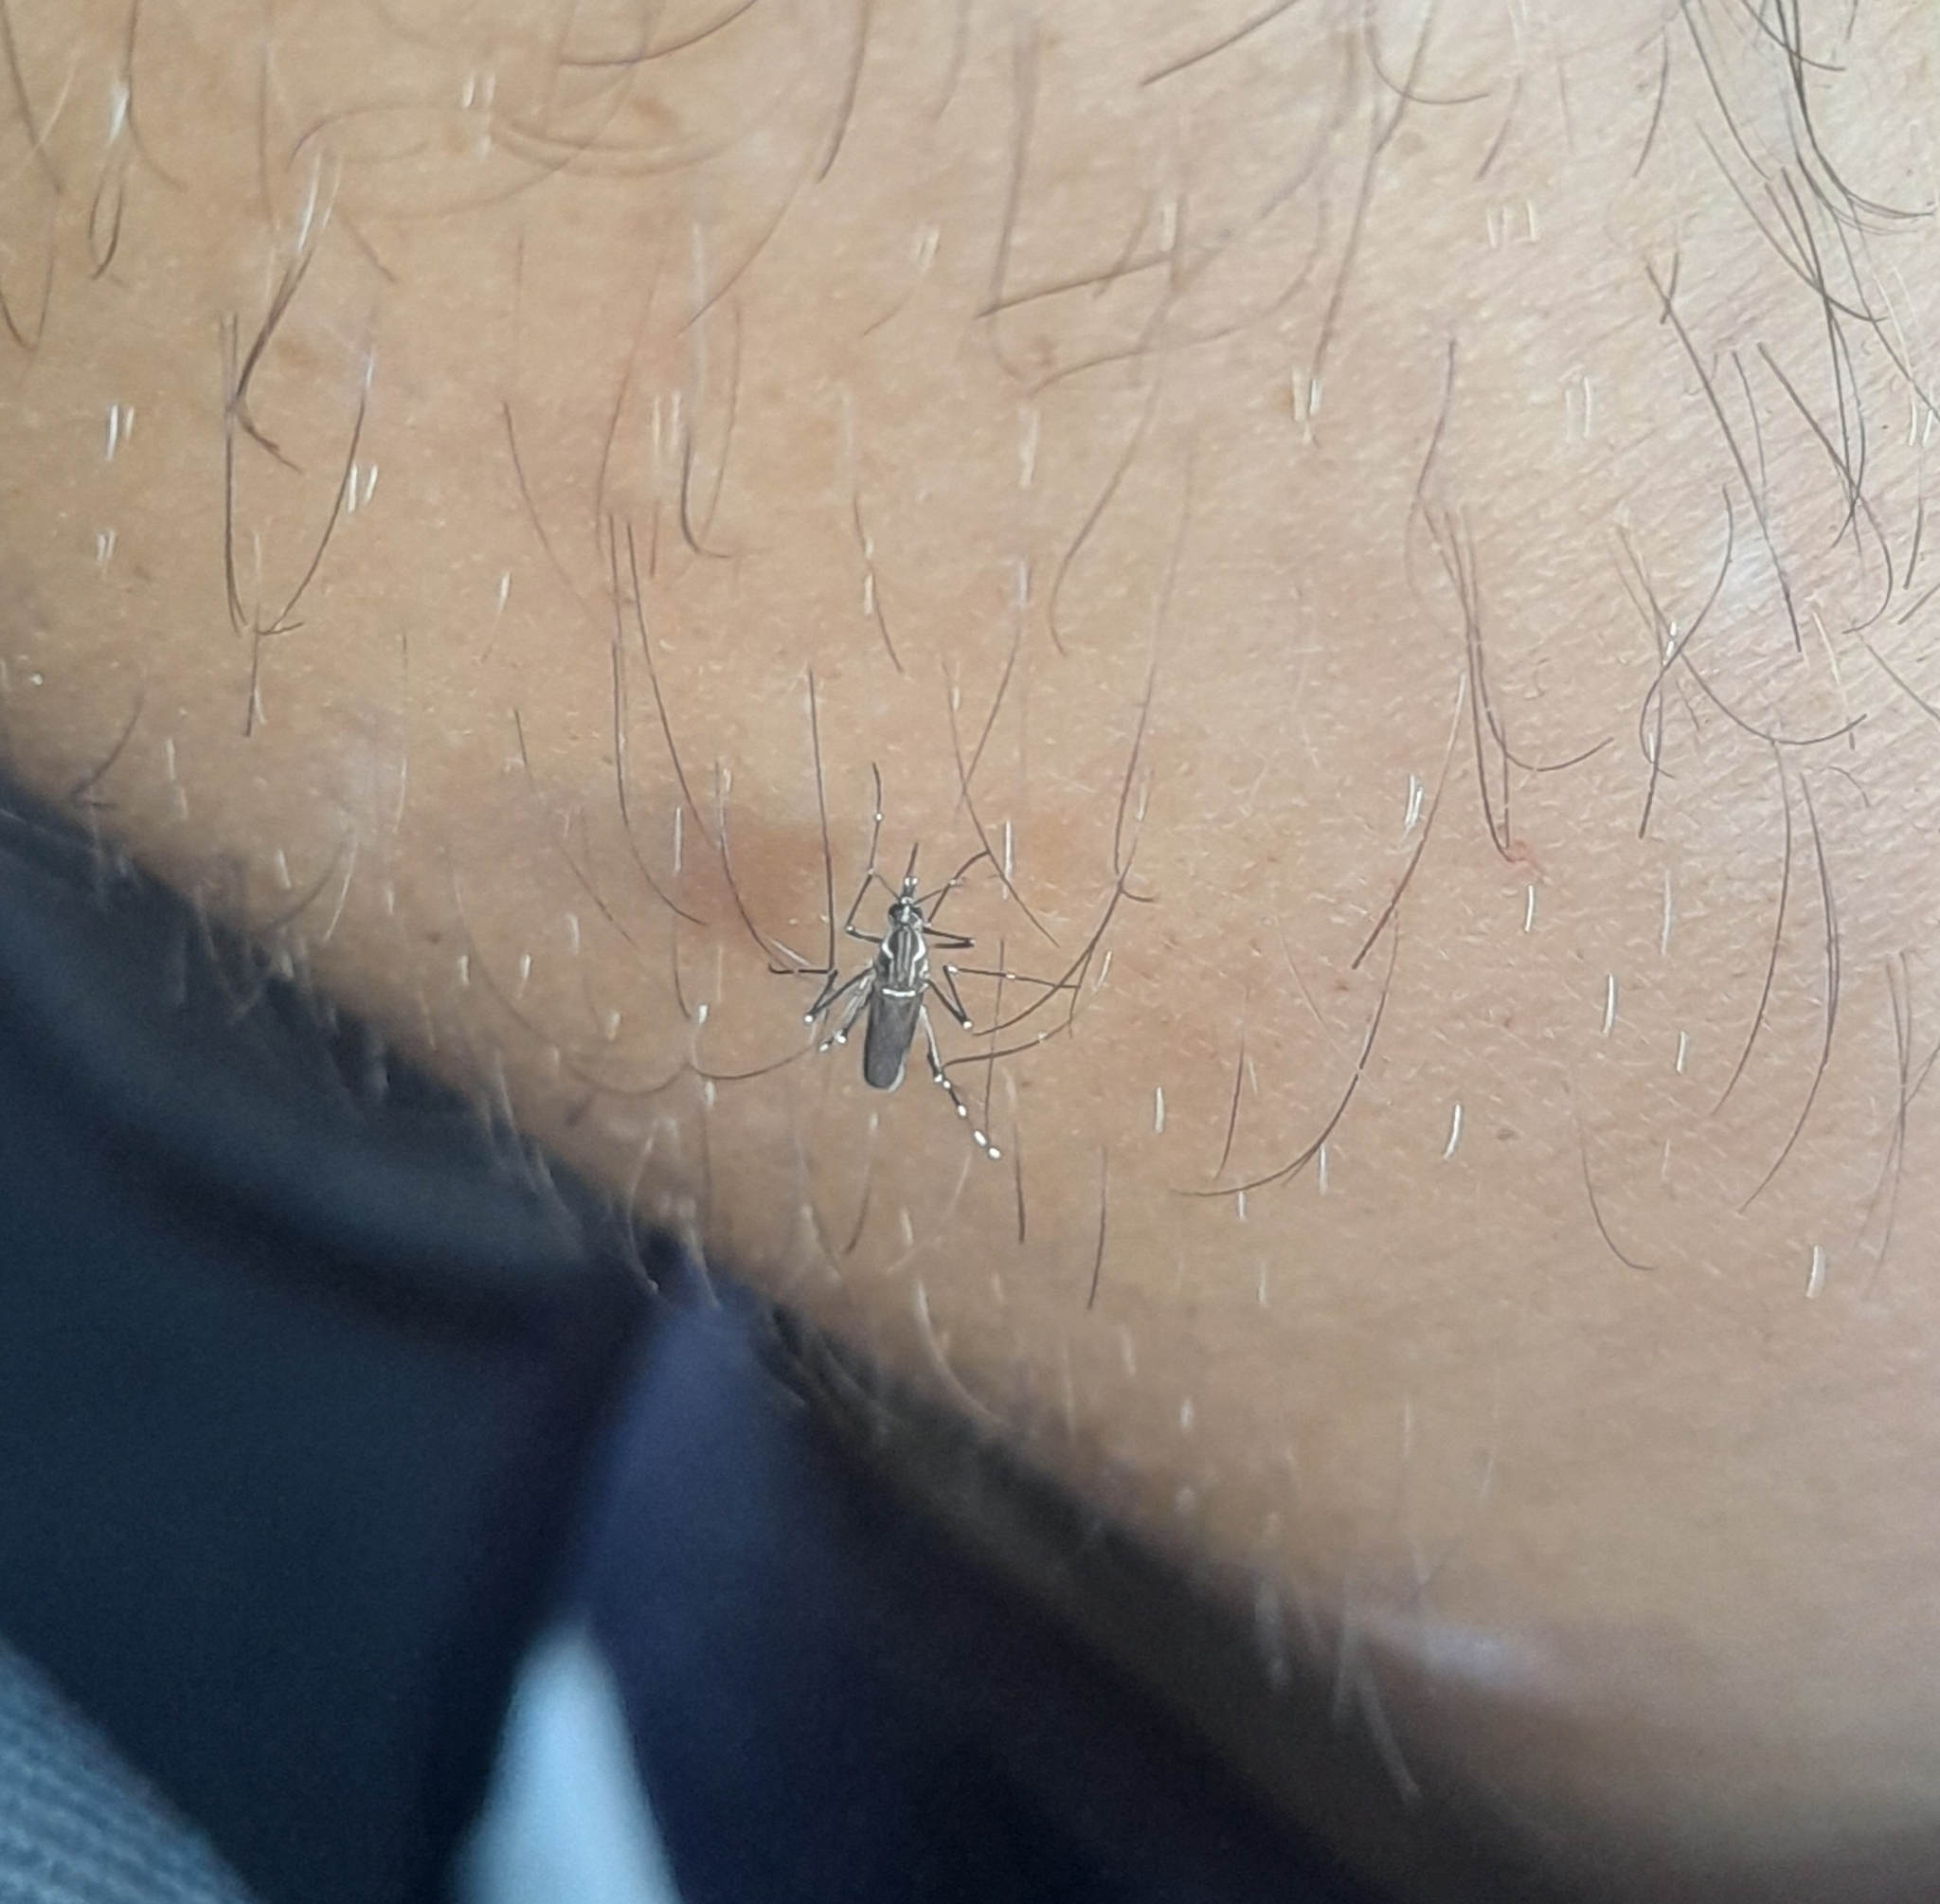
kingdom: Animalia
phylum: Arthropoda
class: Insecta
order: Diptera
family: Culicidae
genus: Aedes
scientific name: Aedes aegypti
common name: Yellow fever mosquito
